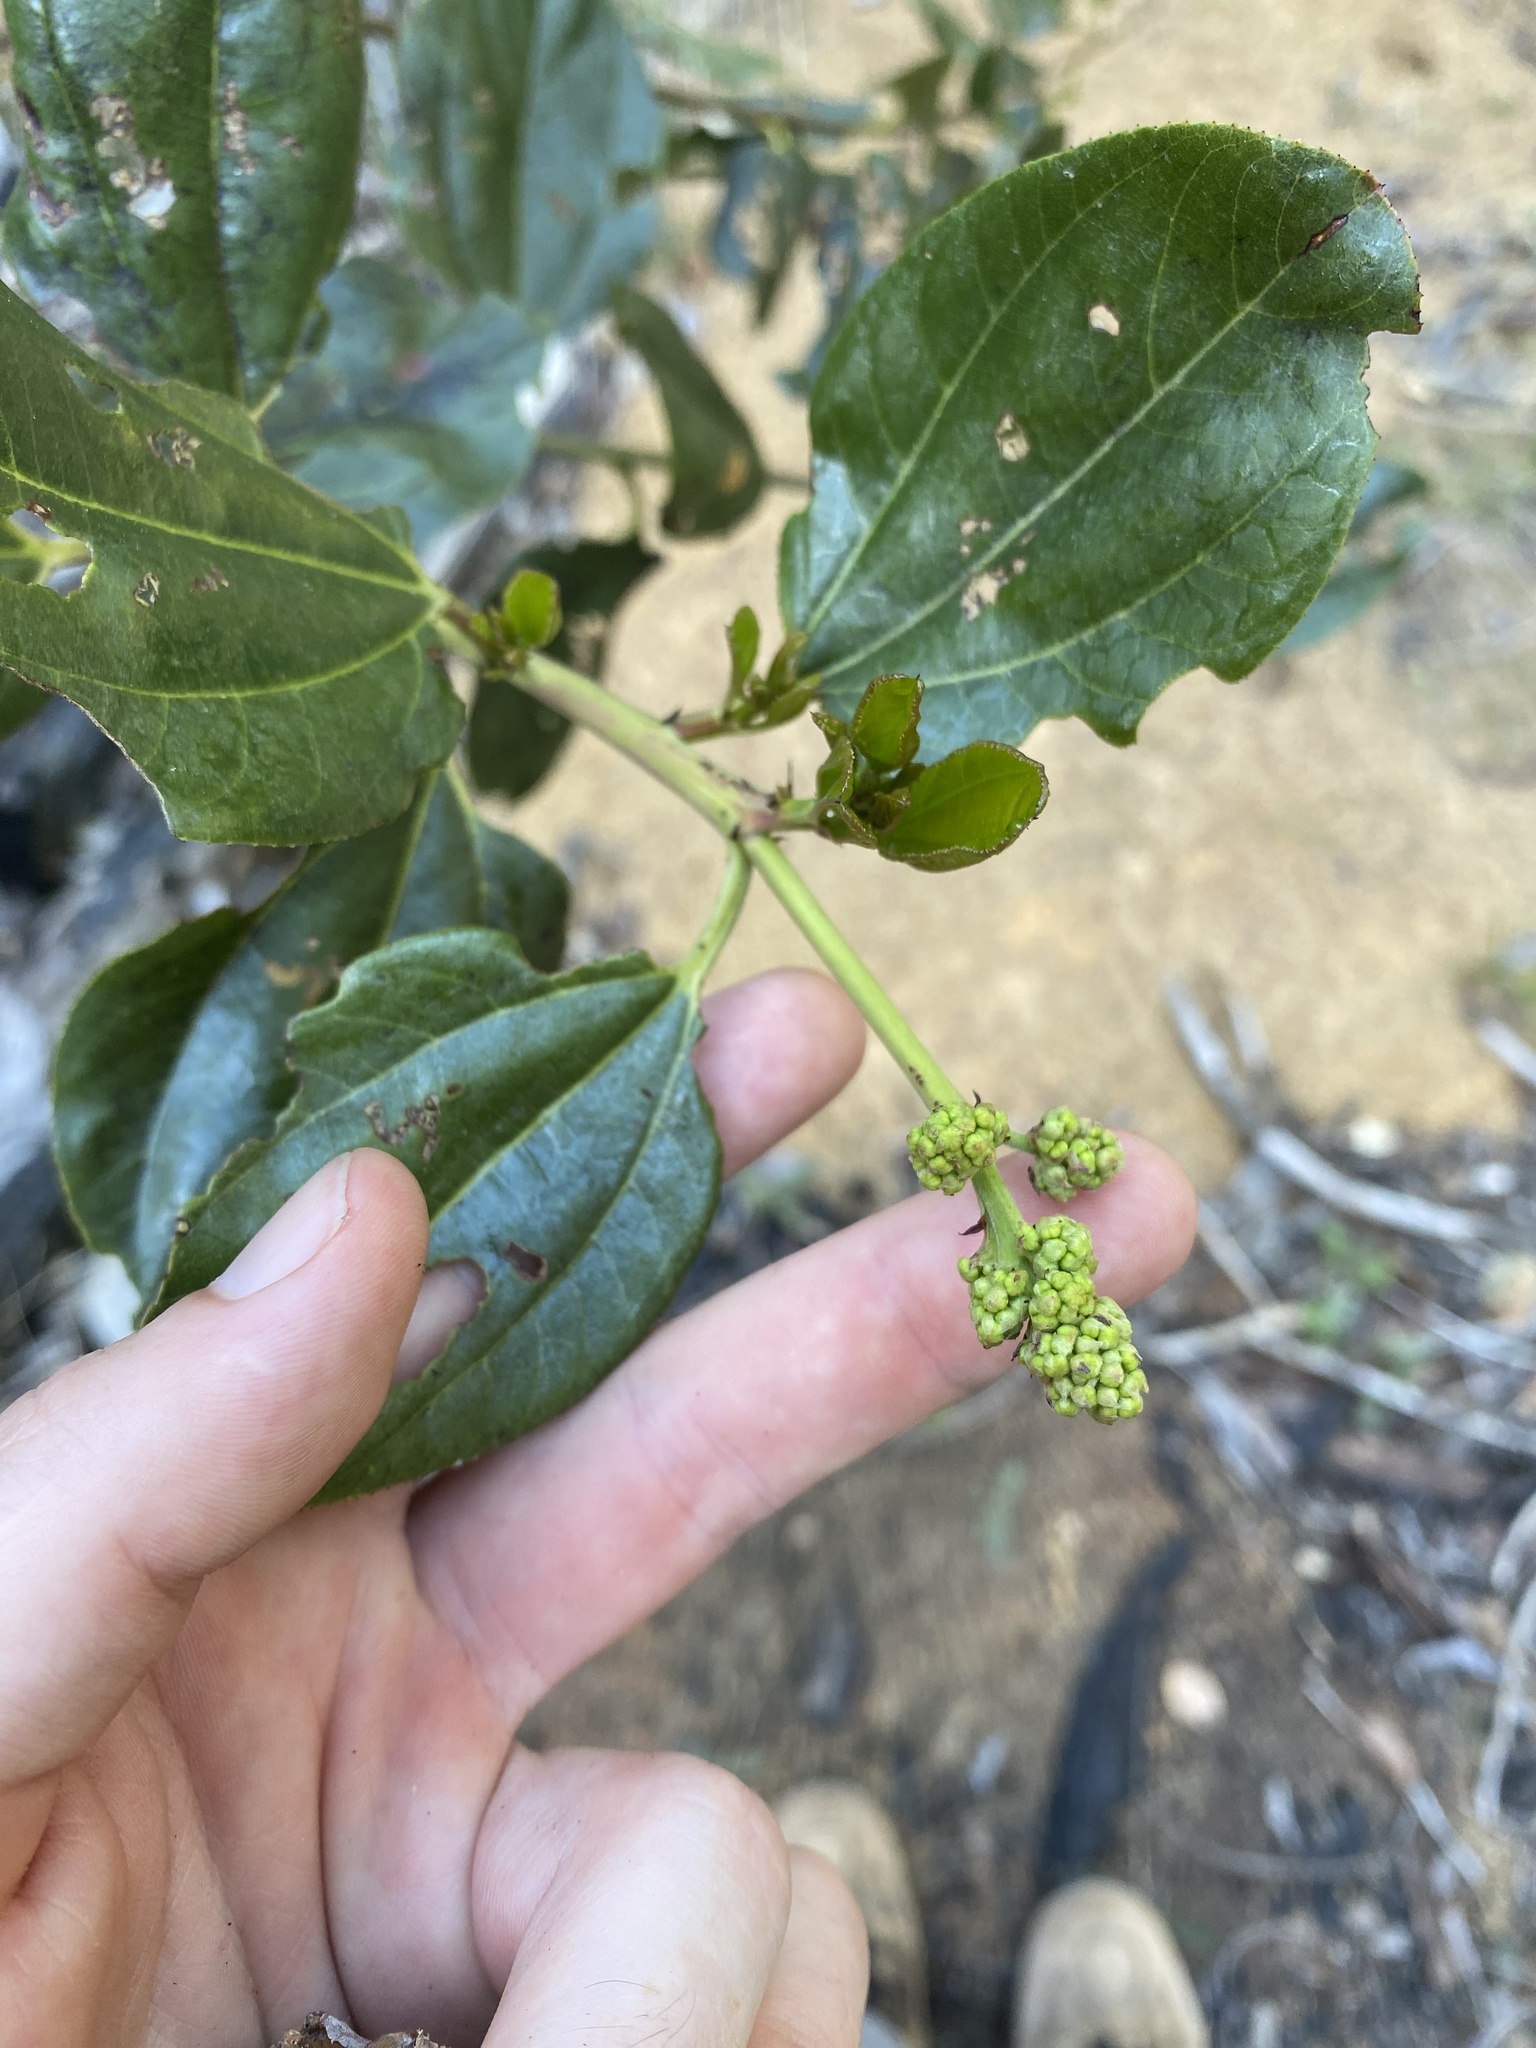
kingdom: Plantae
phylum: Tracheophyta
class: Magnoliopsida
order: Rosales
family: Rhamnaceae
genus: Ceanothus
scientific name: Ceanothus velutinus
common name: Snowbrush
